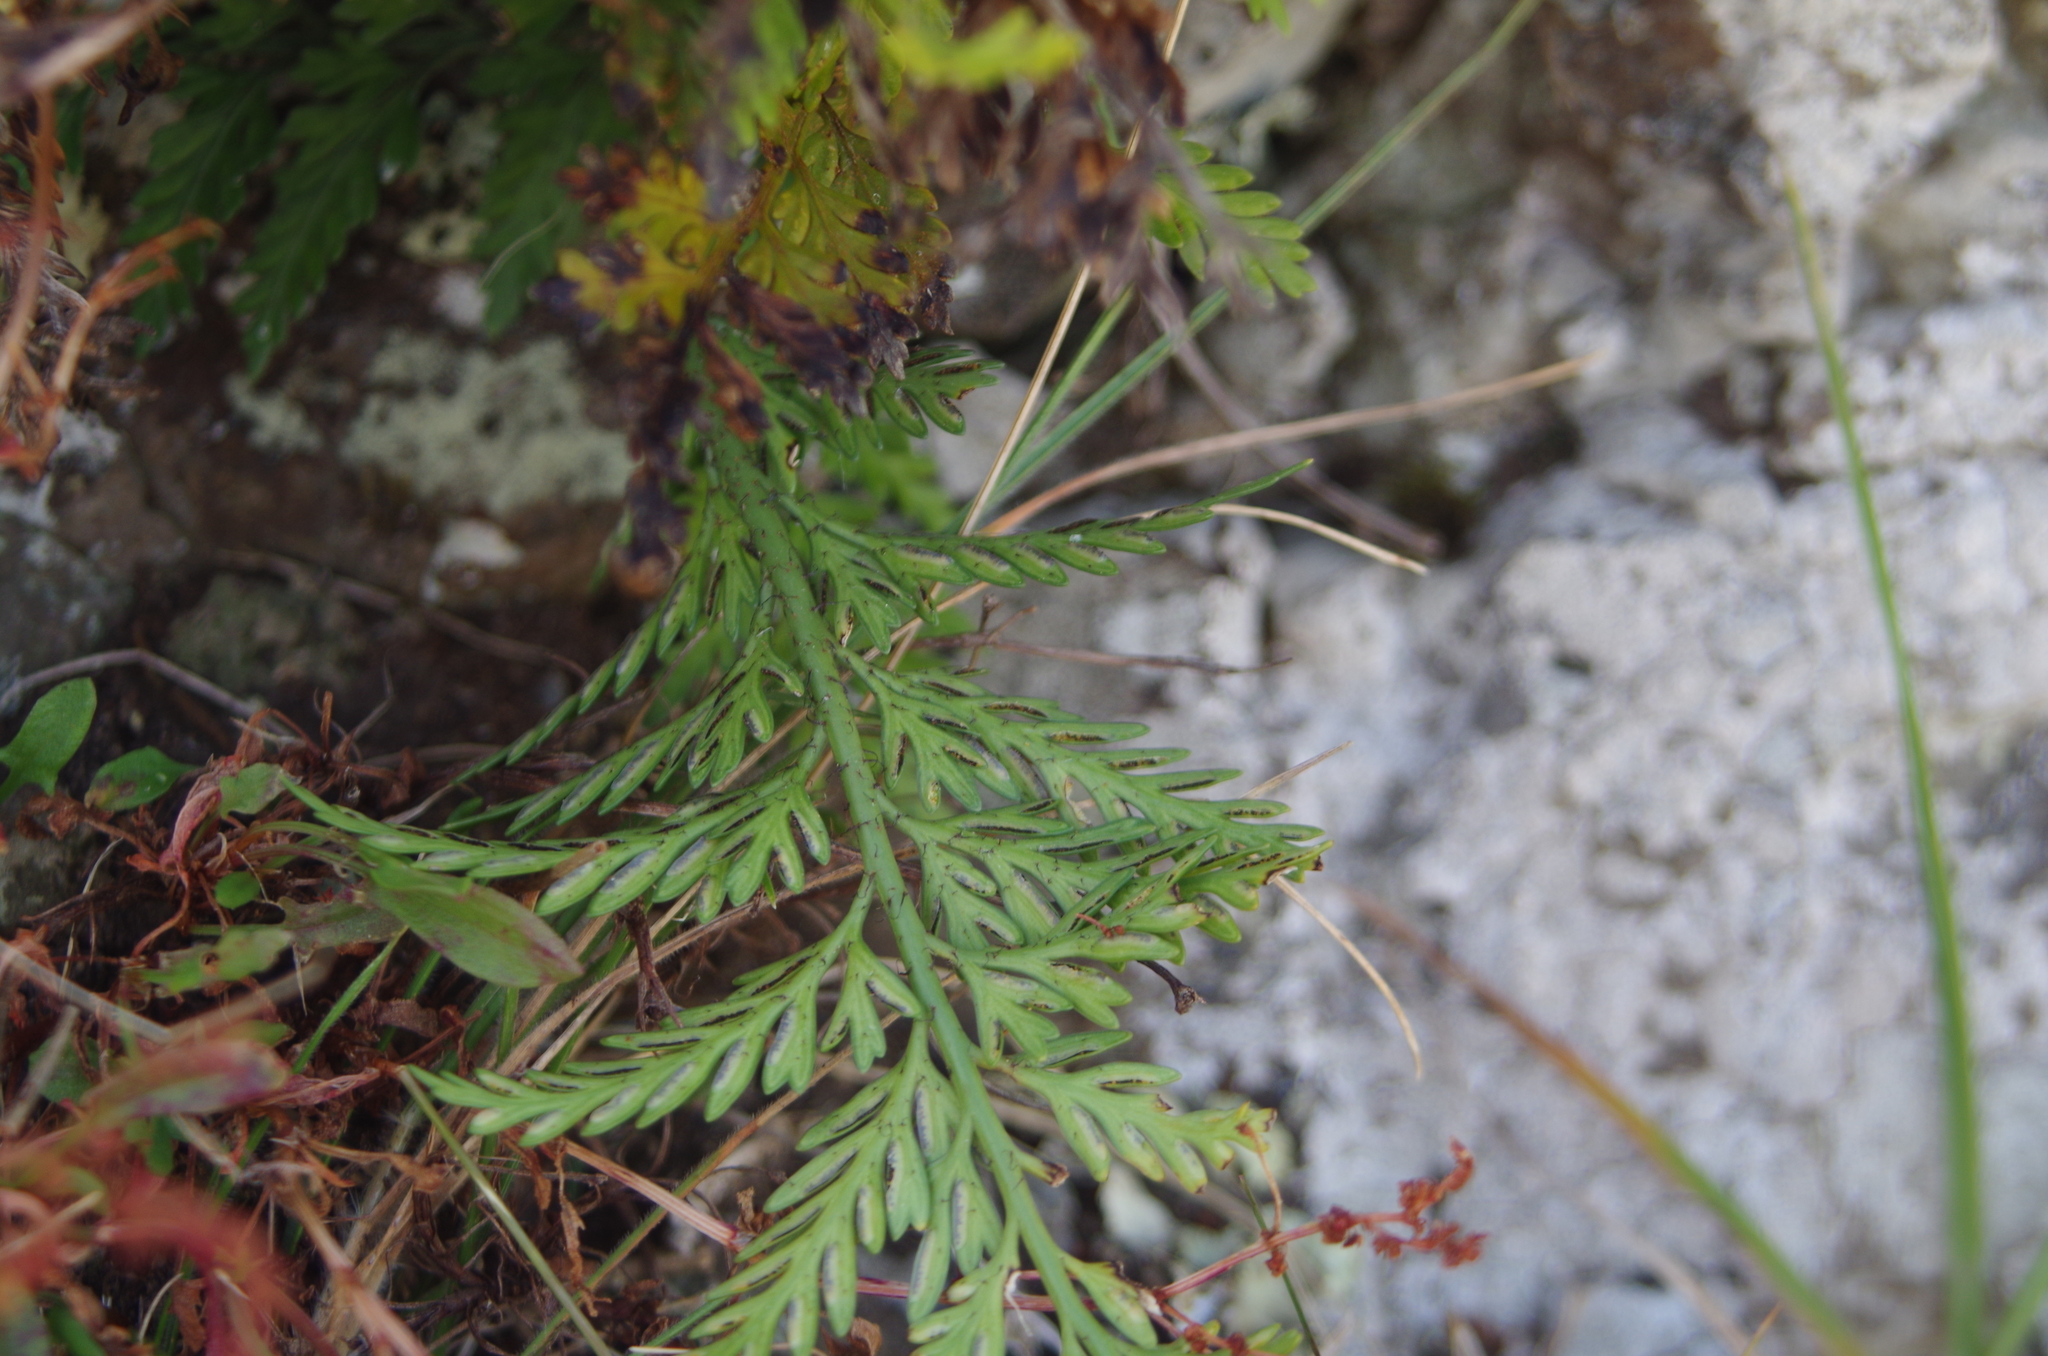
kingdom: Plantae
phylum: Tracheophyta
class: Polypodiopsida
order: Polypodiales
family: Aspleniaceae
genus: Asplenium
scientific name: Asplenium appendiculatum
